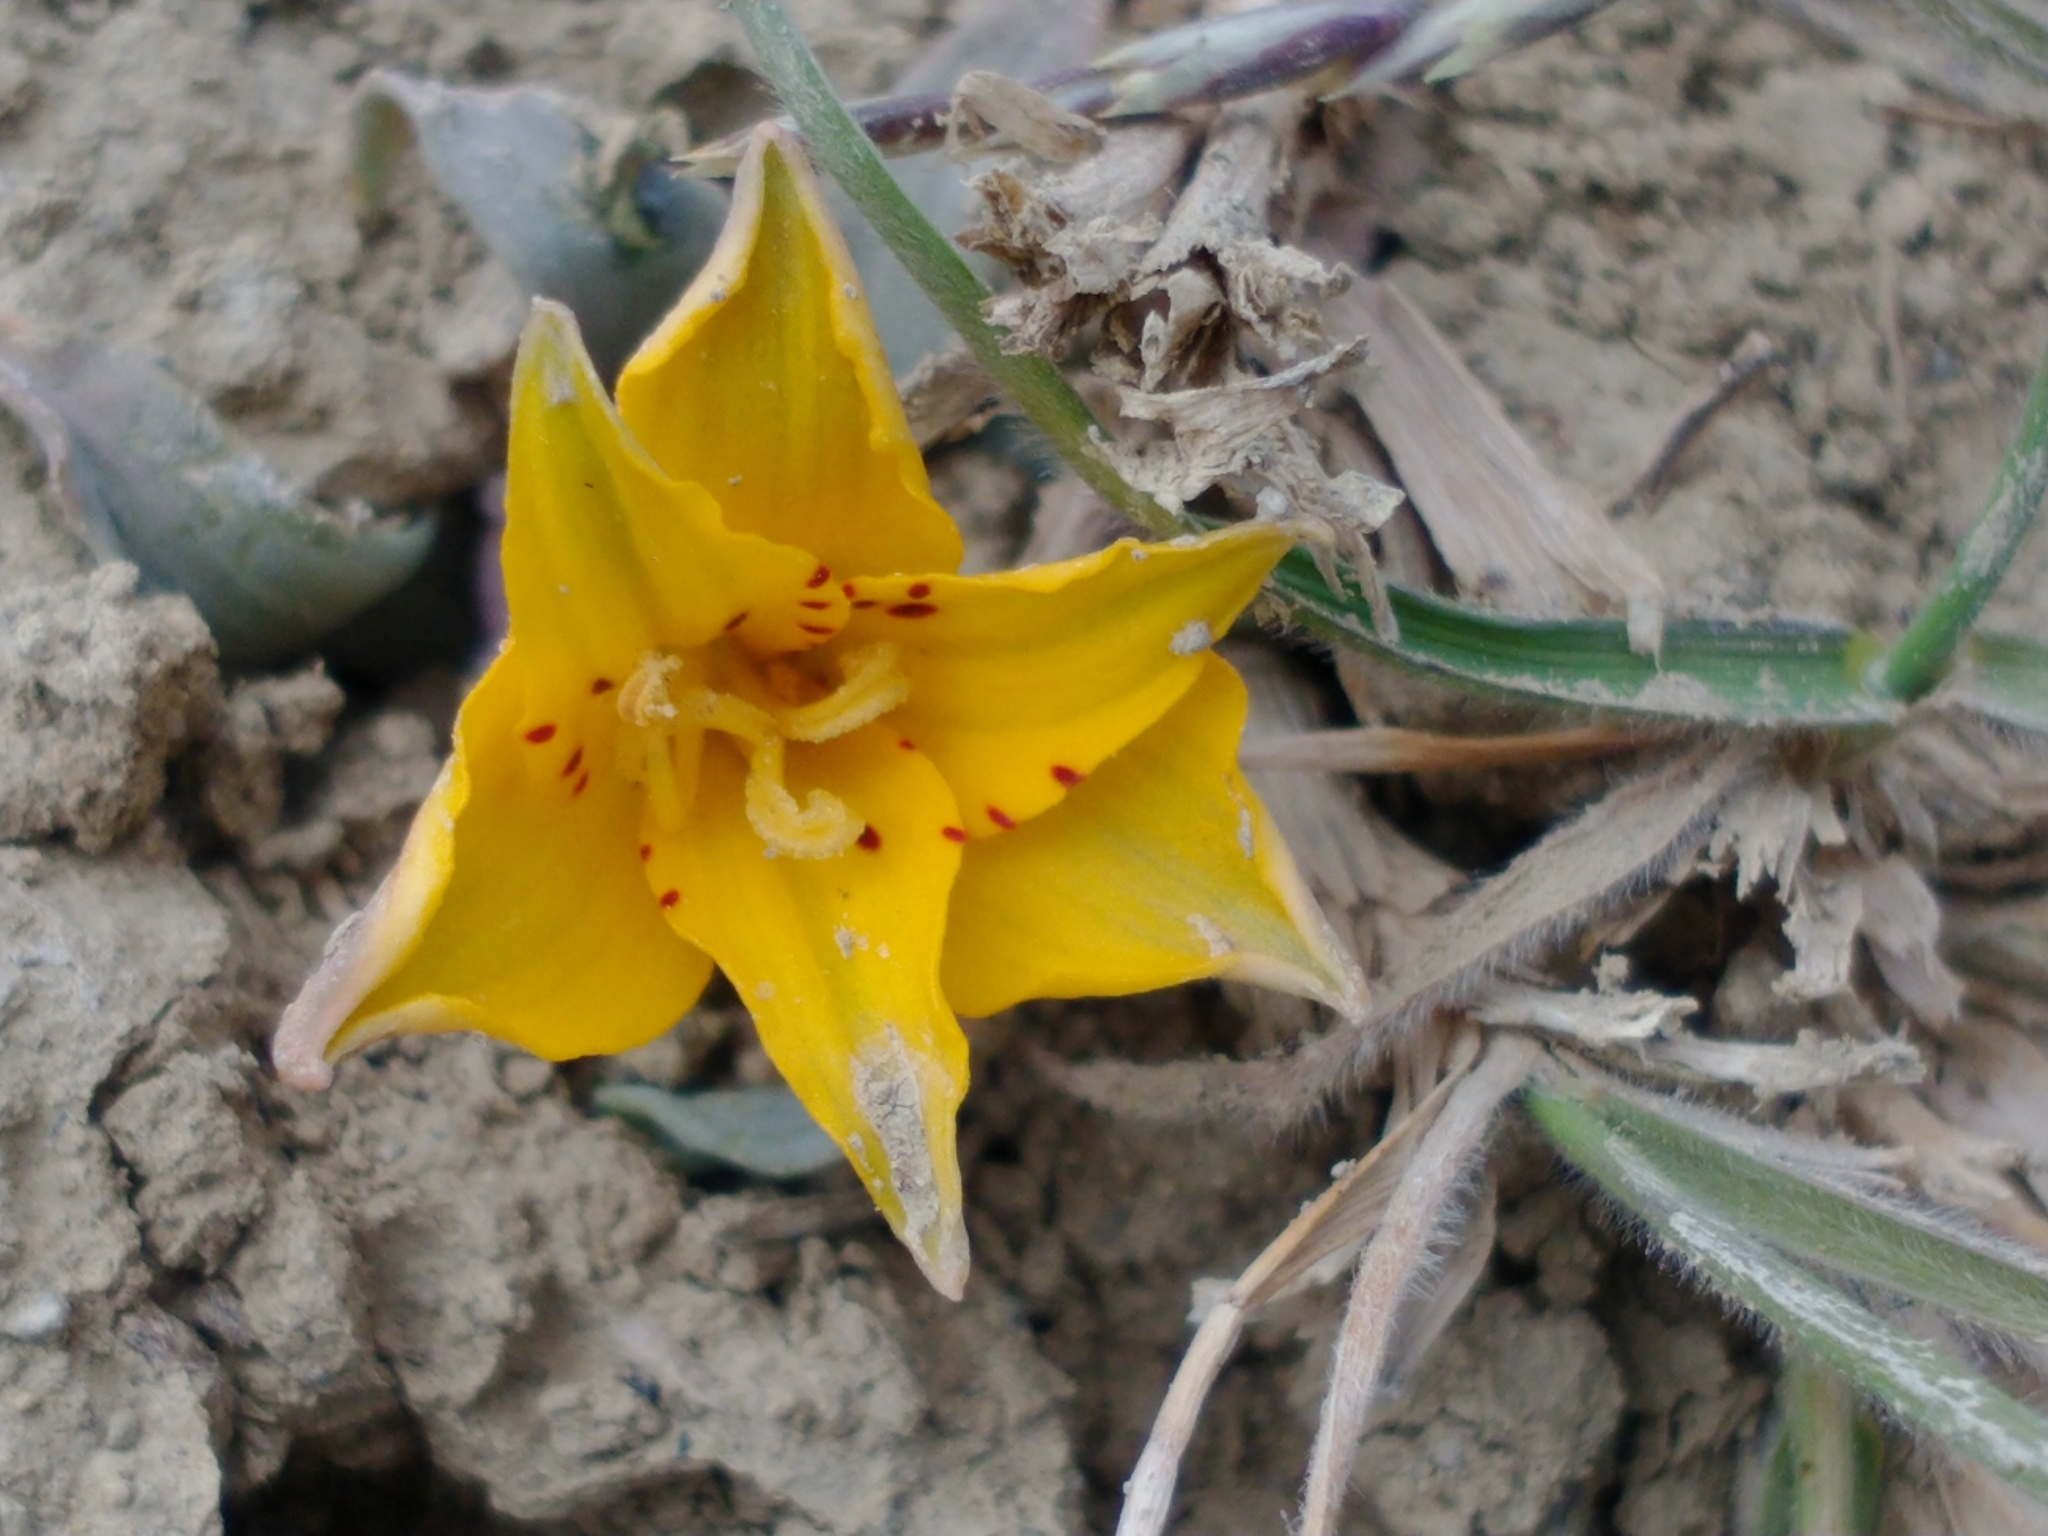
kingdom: Plantae
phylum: Tracheophyta
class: Liliopsida
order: Liliales
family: Alstroemeriaceae
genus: Alstroemeria
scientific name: Alstroemeria patagonica
